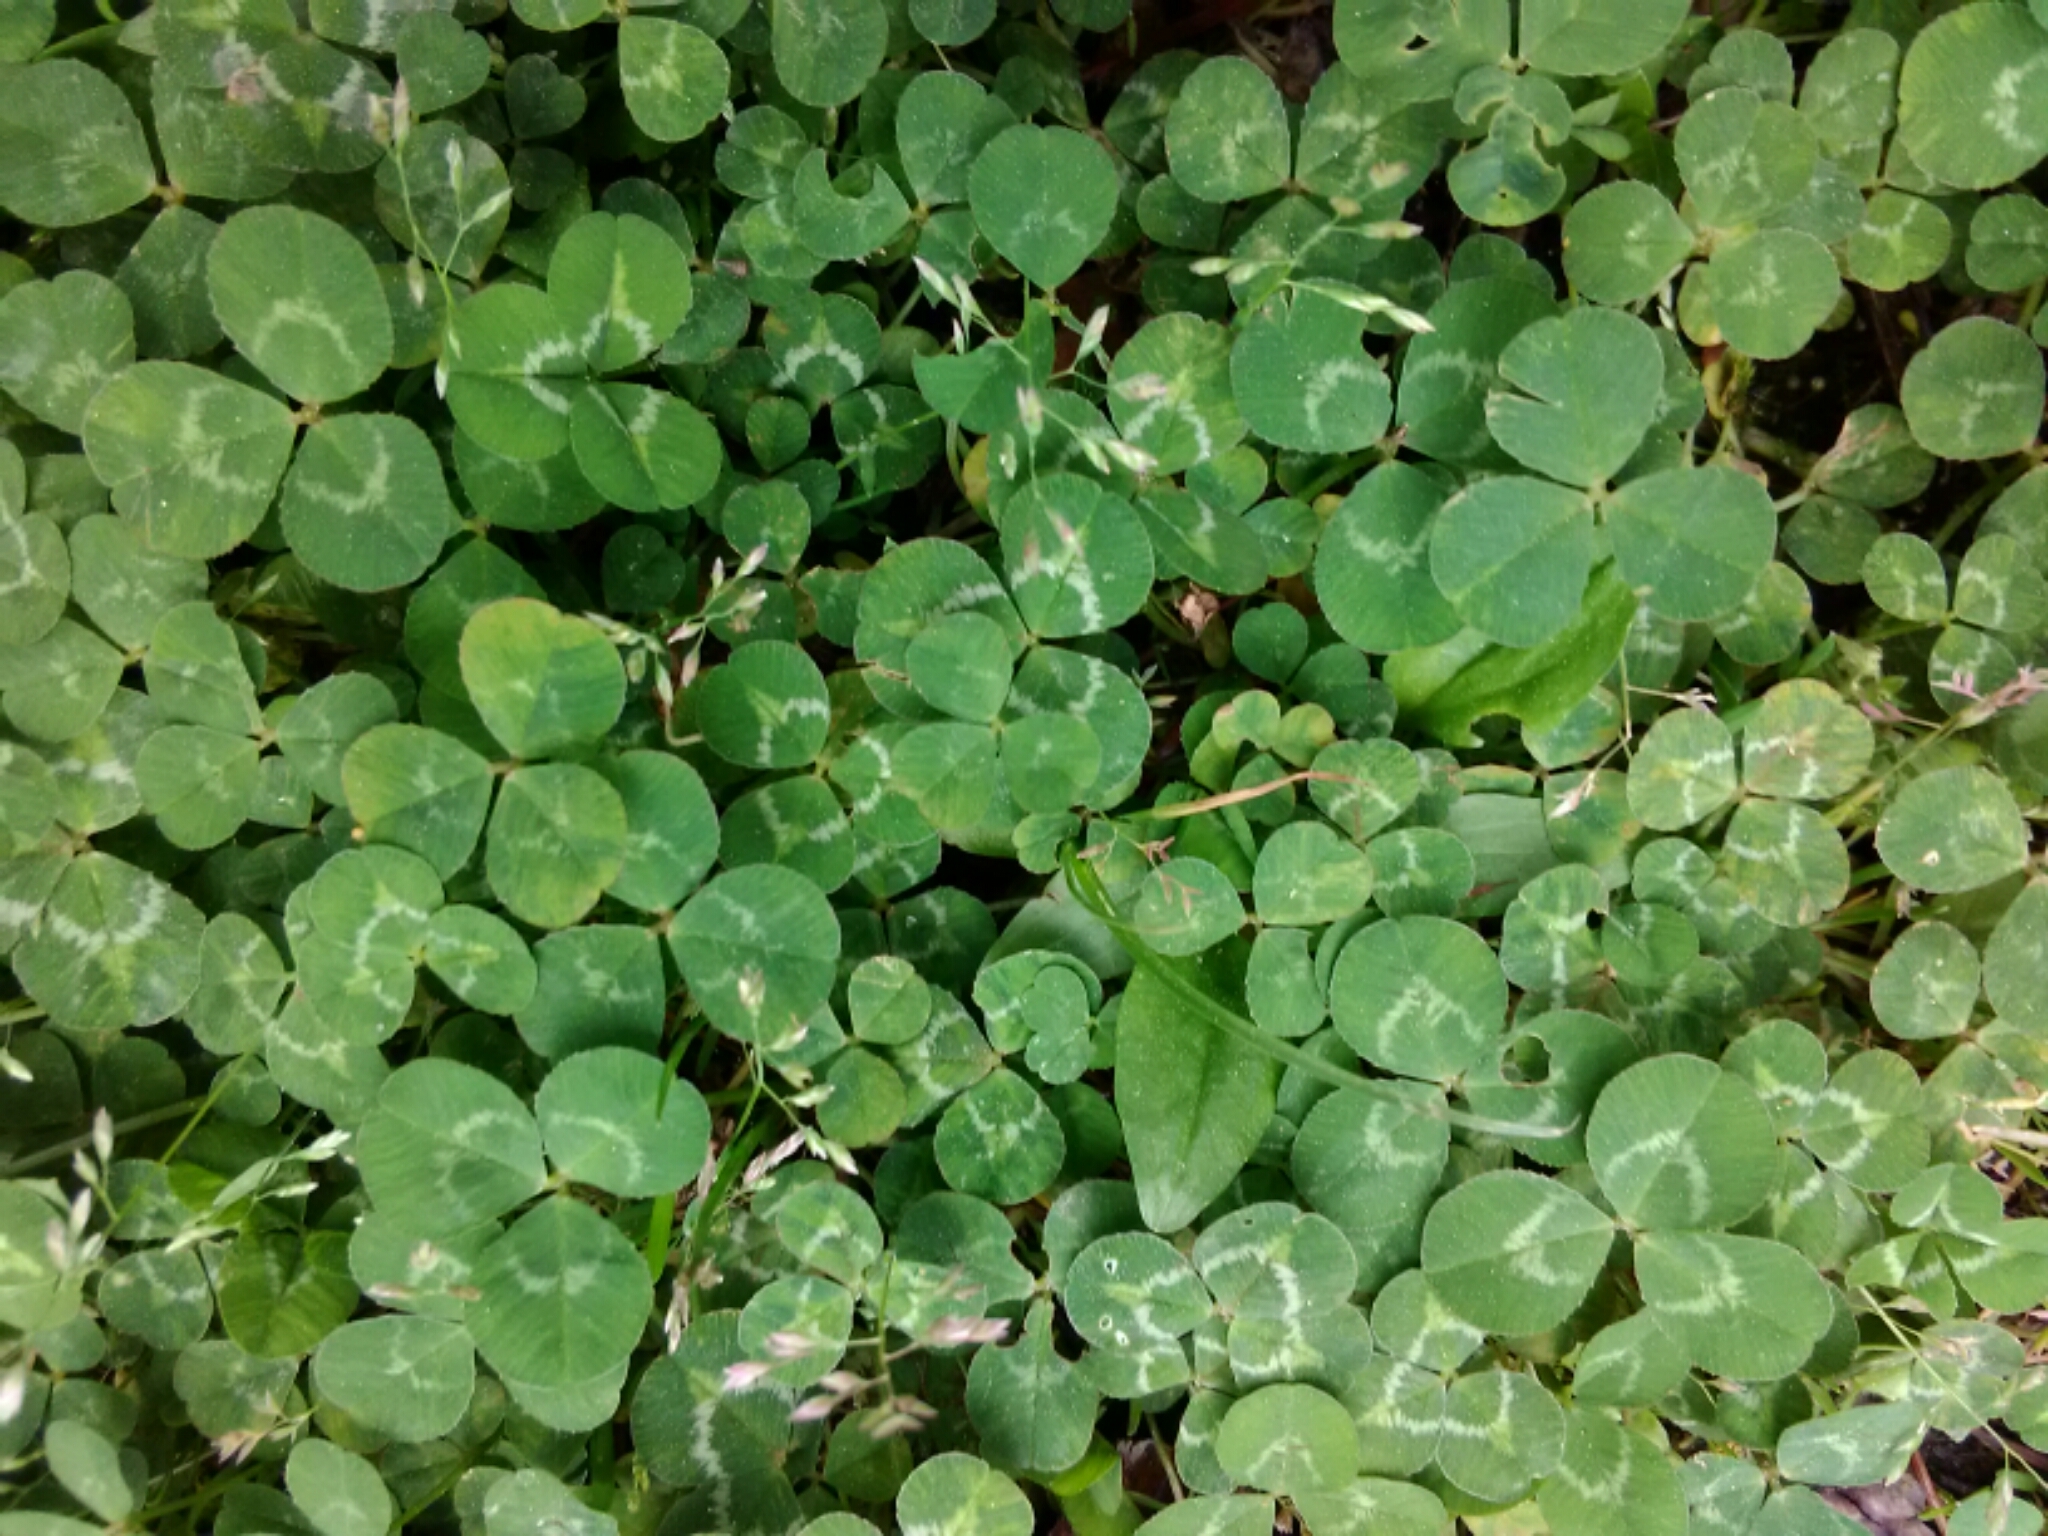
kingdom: Plantae
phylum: Tracheophyta
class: Magnoliopsida
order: Fabales
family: Fabaceae
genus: Trifolium
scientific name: Trifolium repens
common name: White clover
